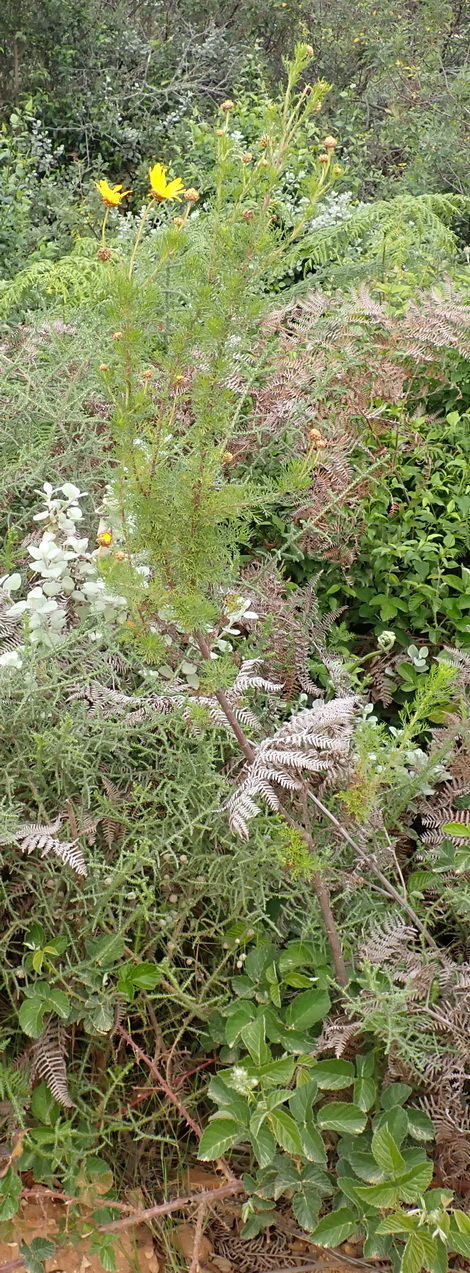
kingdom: Plantae
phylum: Tracheophyta
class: Magnoliopsida
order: Asterales
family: Asteraceae
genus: Ursinia
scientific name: Ursinia scariosa
